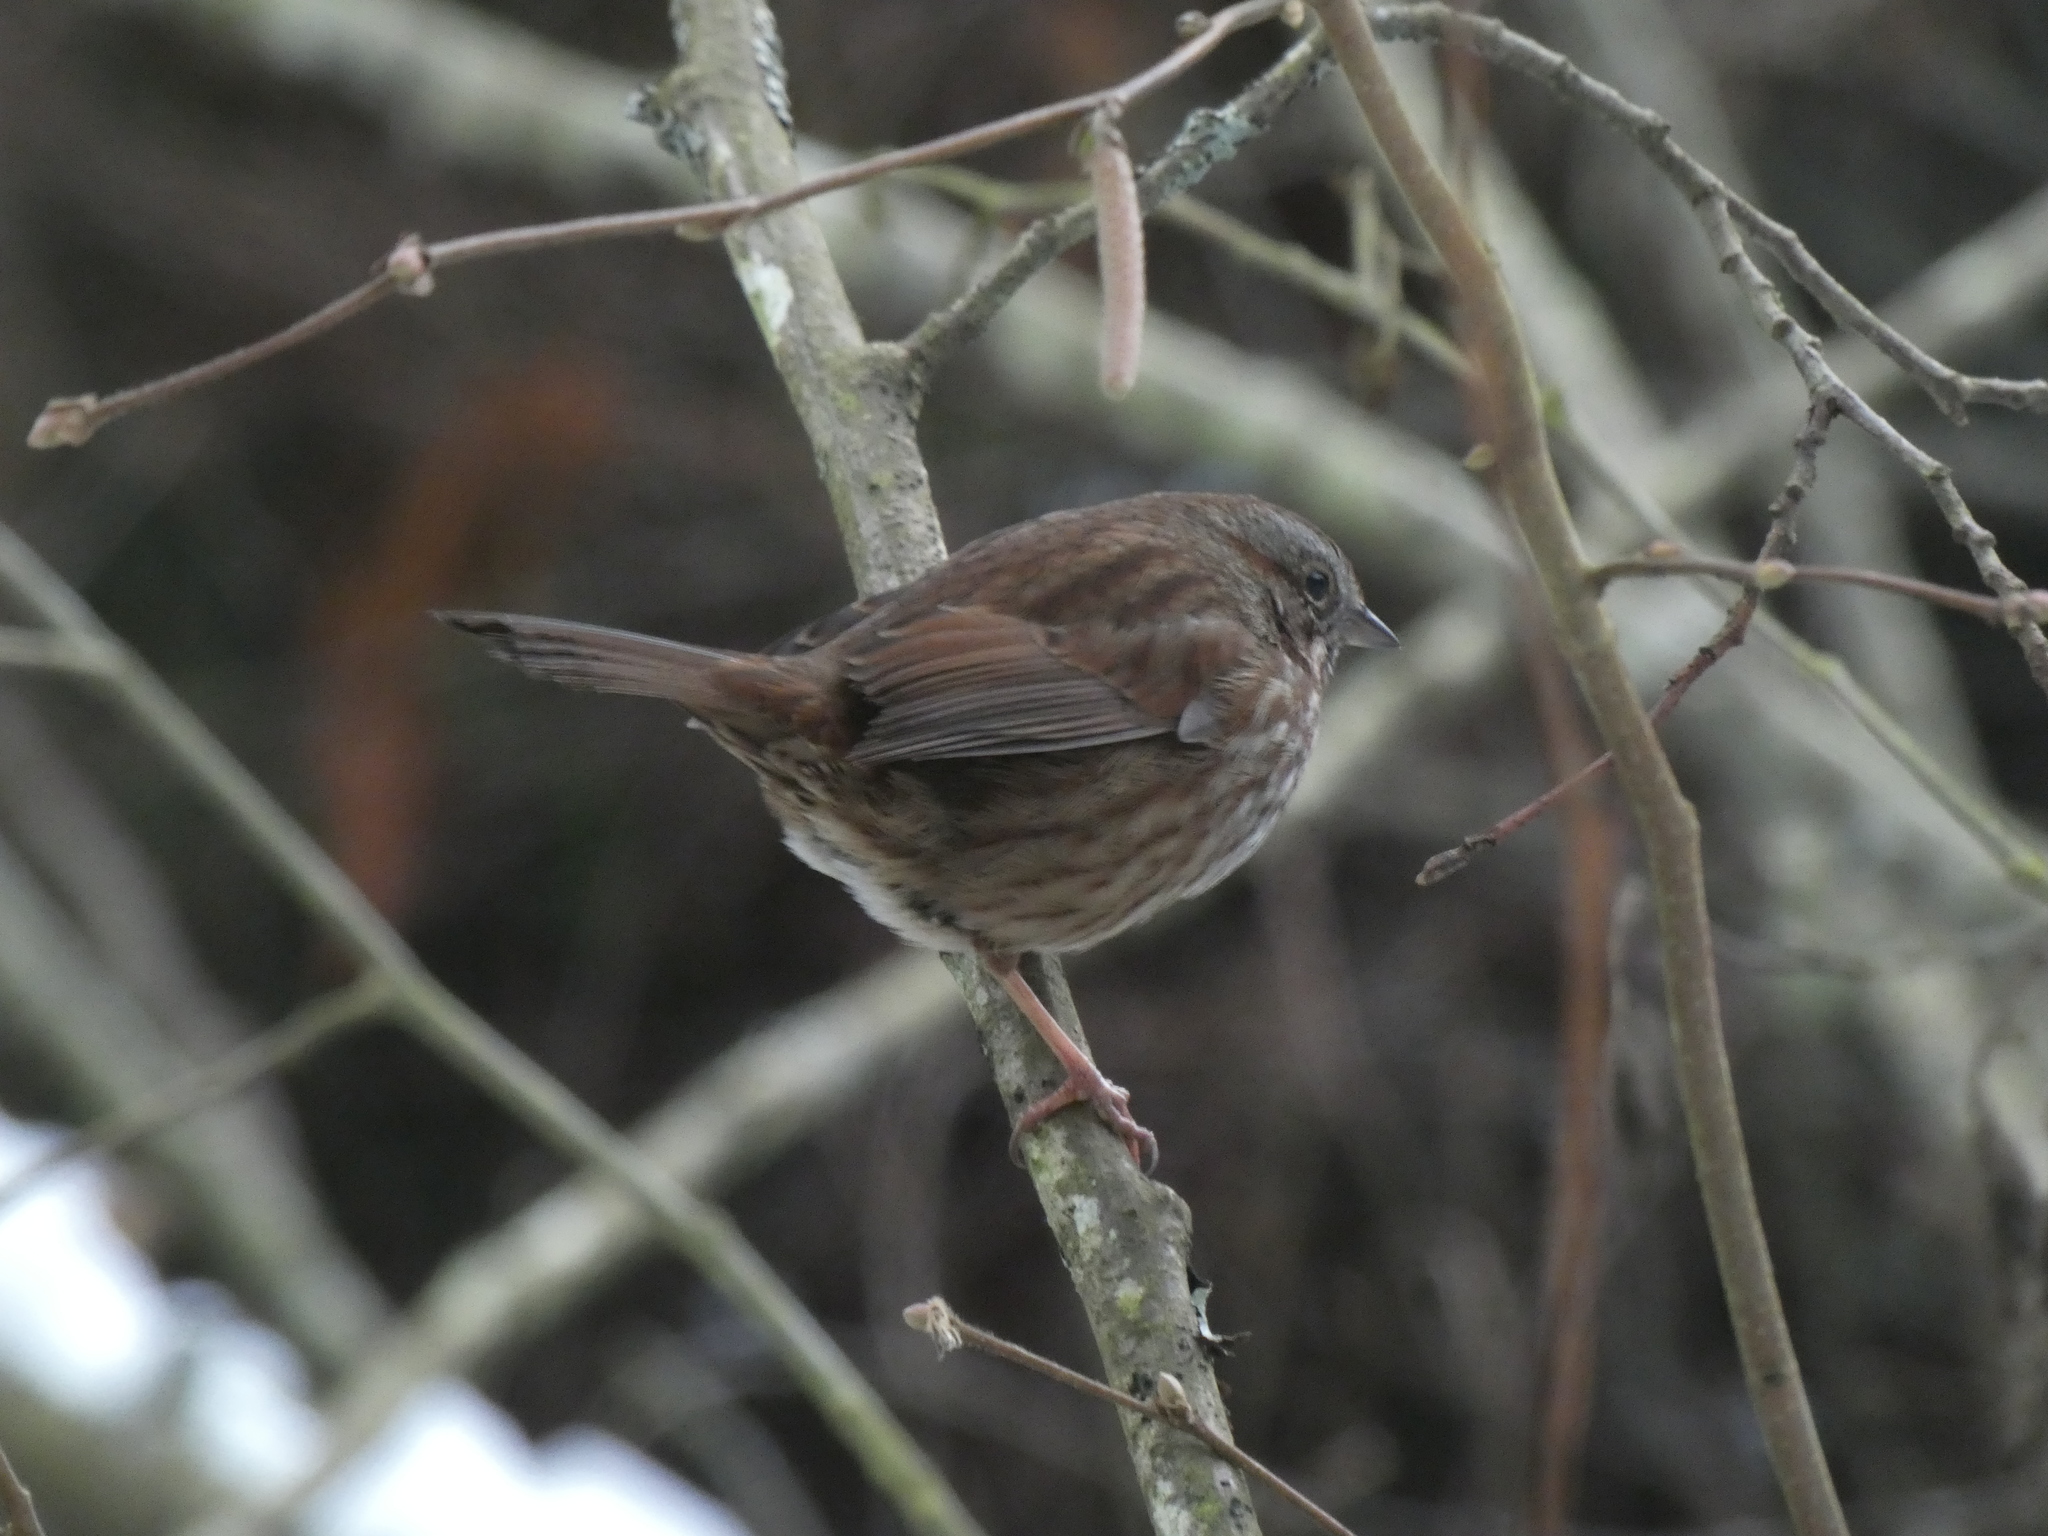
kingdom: Animalia
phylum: Chordata
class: Aves
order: Passeriformes
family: Passerellidae
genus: Melospiza
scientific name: Melospiza melodia
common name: Song sparrow
